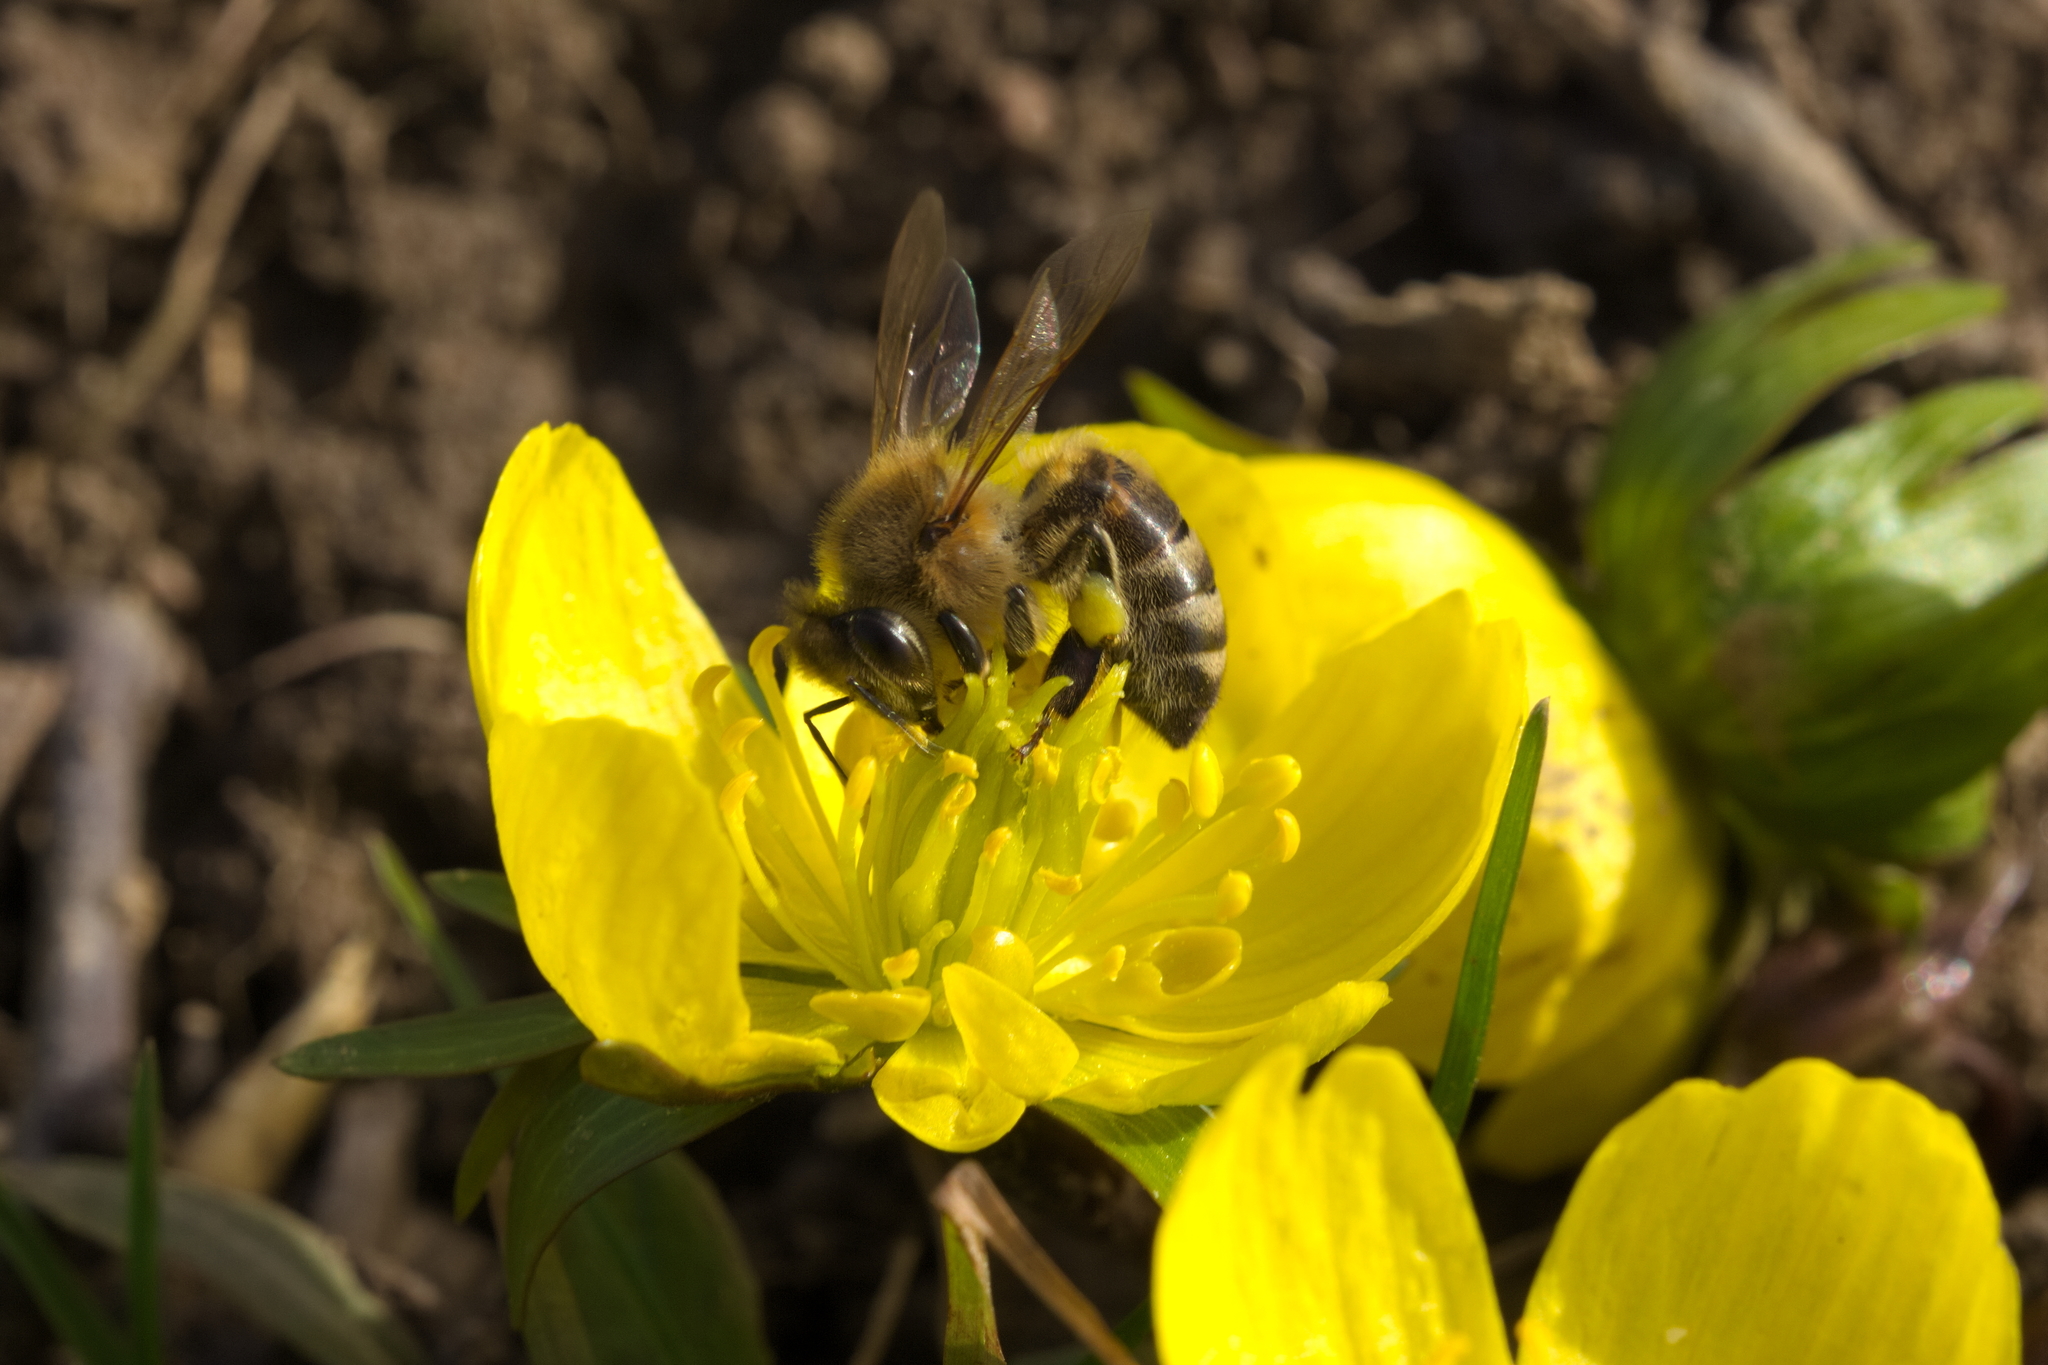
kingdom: Animalia
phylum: Arthropoda
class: Insecta
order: Hymenoptera
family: Apidae
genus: Apis
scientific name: Apis mellifera
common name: Honey bee
